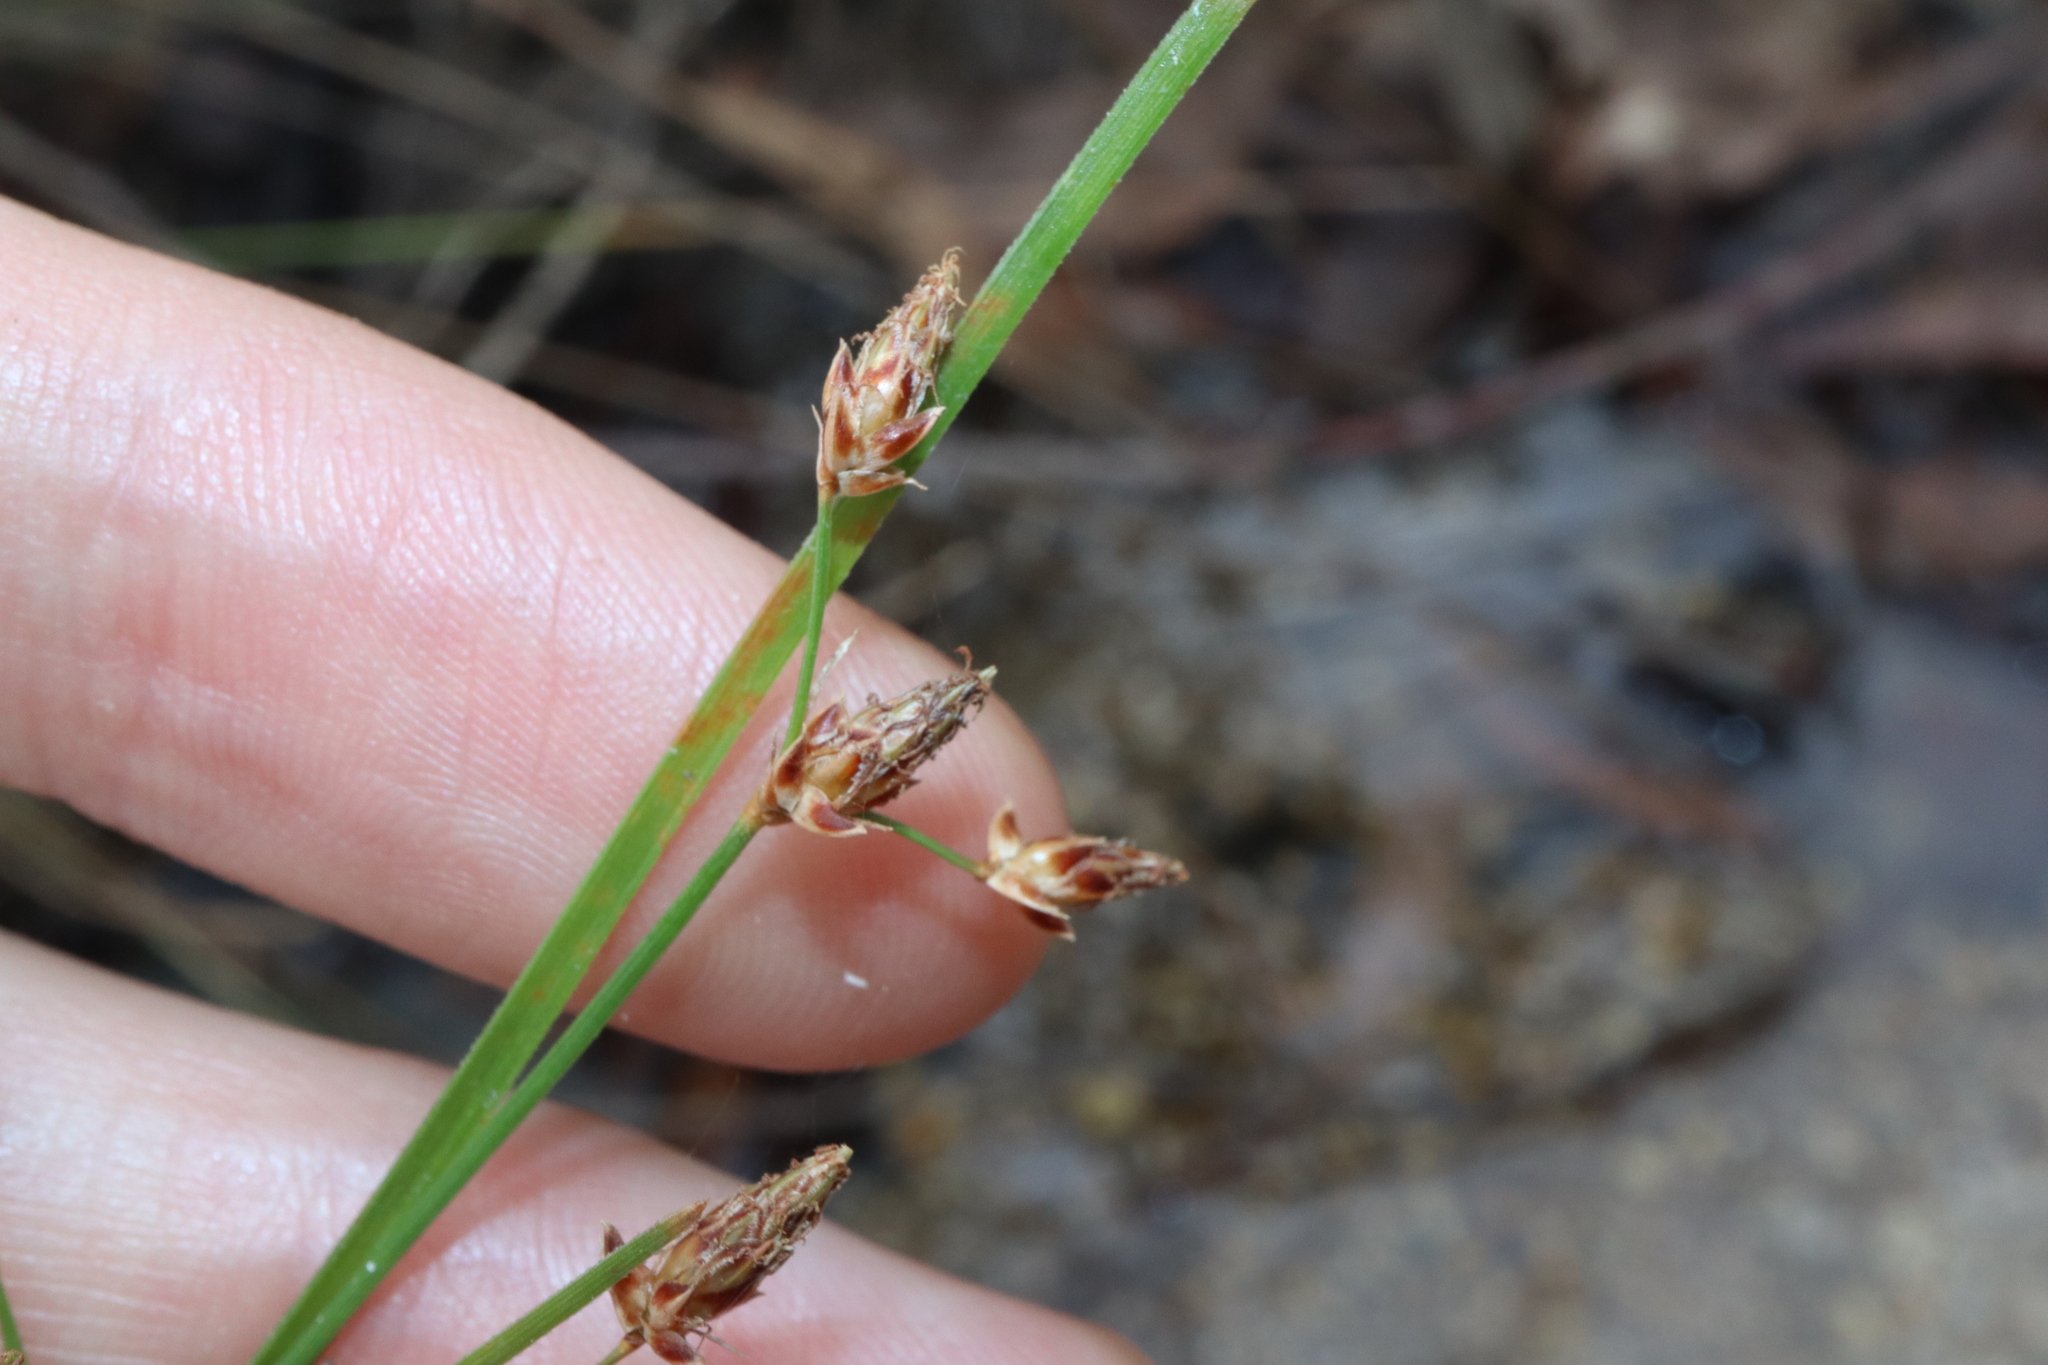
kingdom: Plantae
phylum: Tracheophyta
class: Liliopsida
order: Poales
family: Cyperaceae
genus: Fimbristylis
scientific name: Fimbristylis dichotoma
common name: Forked fimbry
